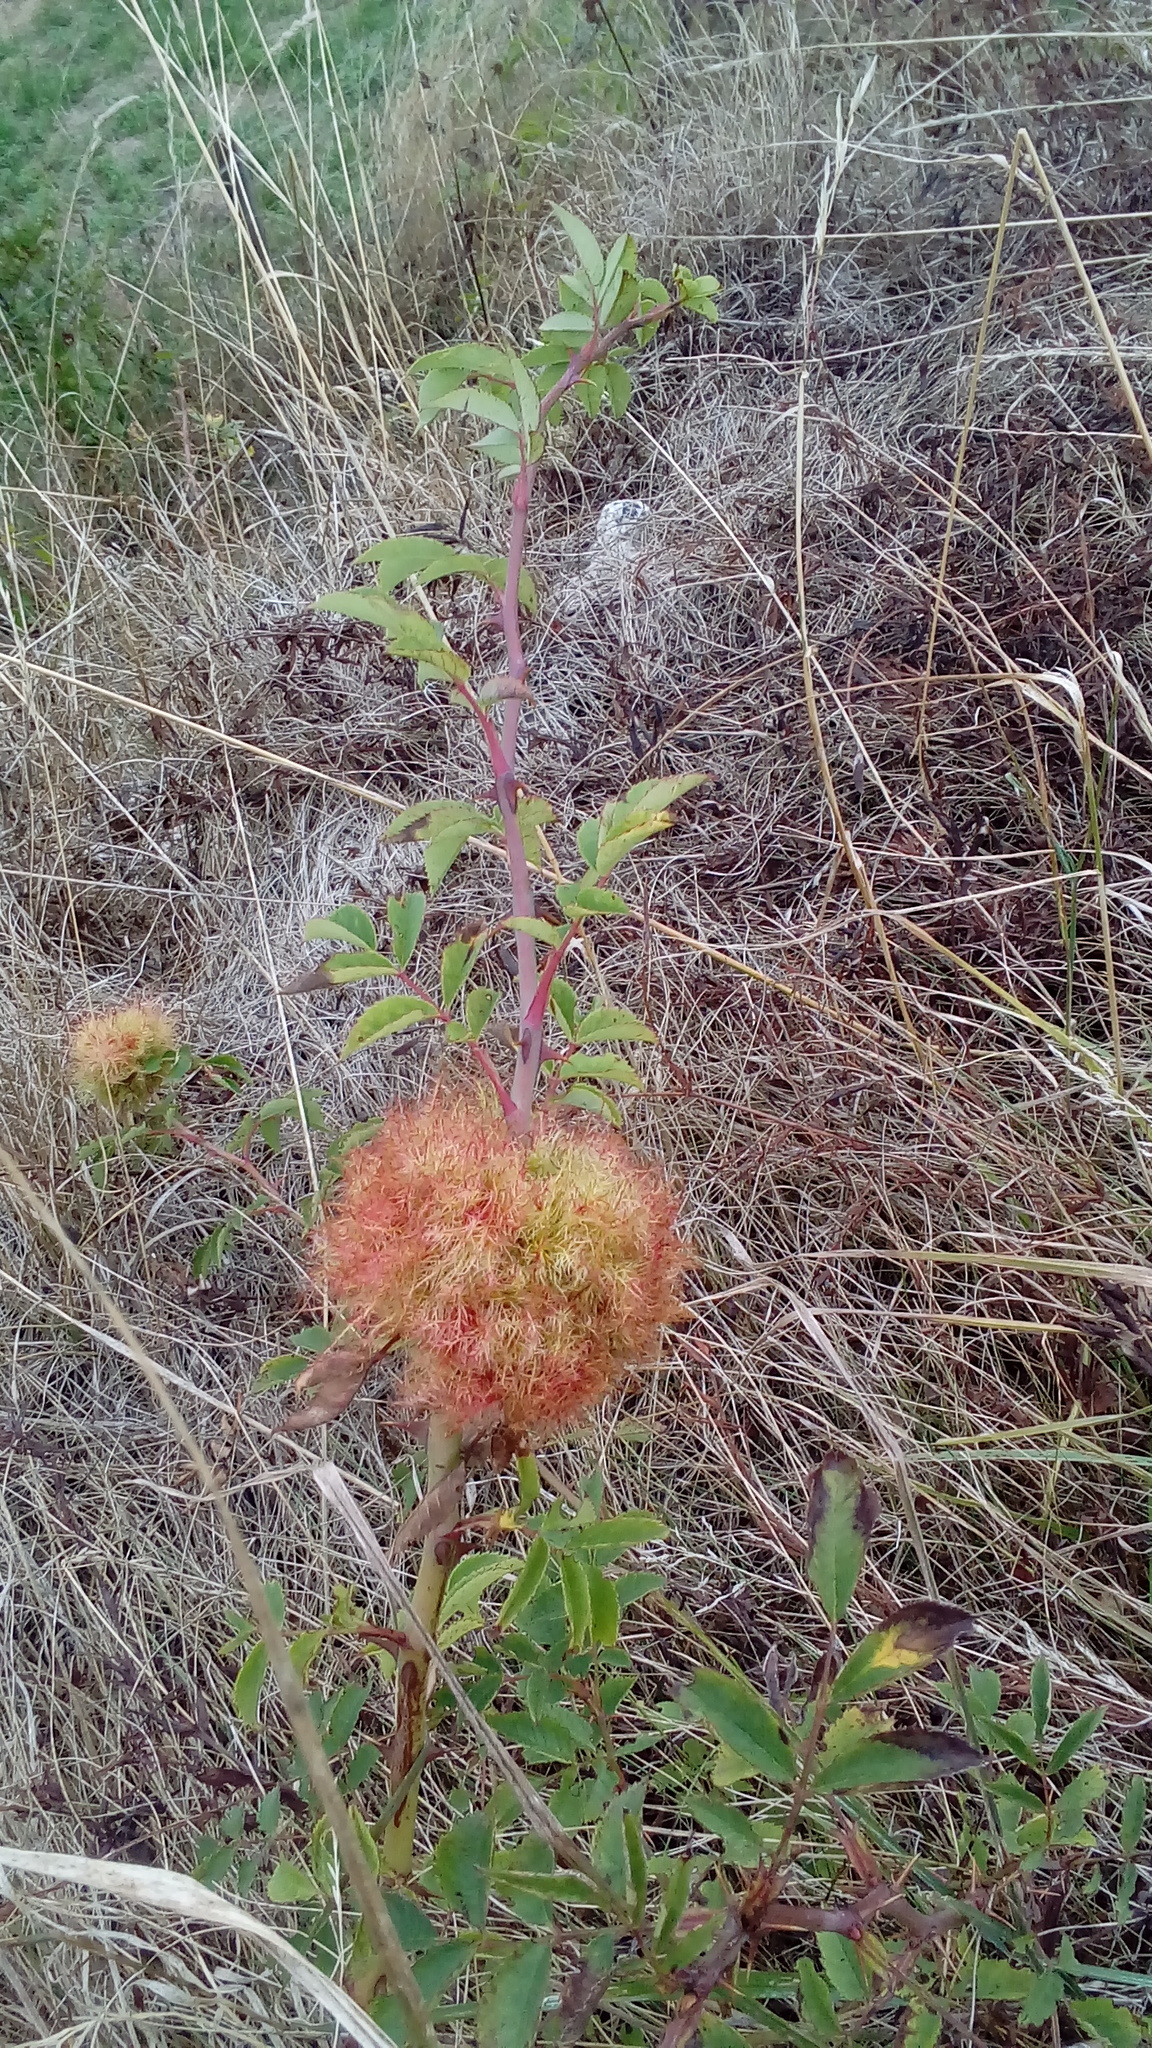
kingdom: Animalia
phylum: Arthropoda
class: Insecta
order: Hymenoptera
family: Cynipidae
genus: Diplolepis
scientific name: Diplolepis rosae
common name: Bedeguar gall
